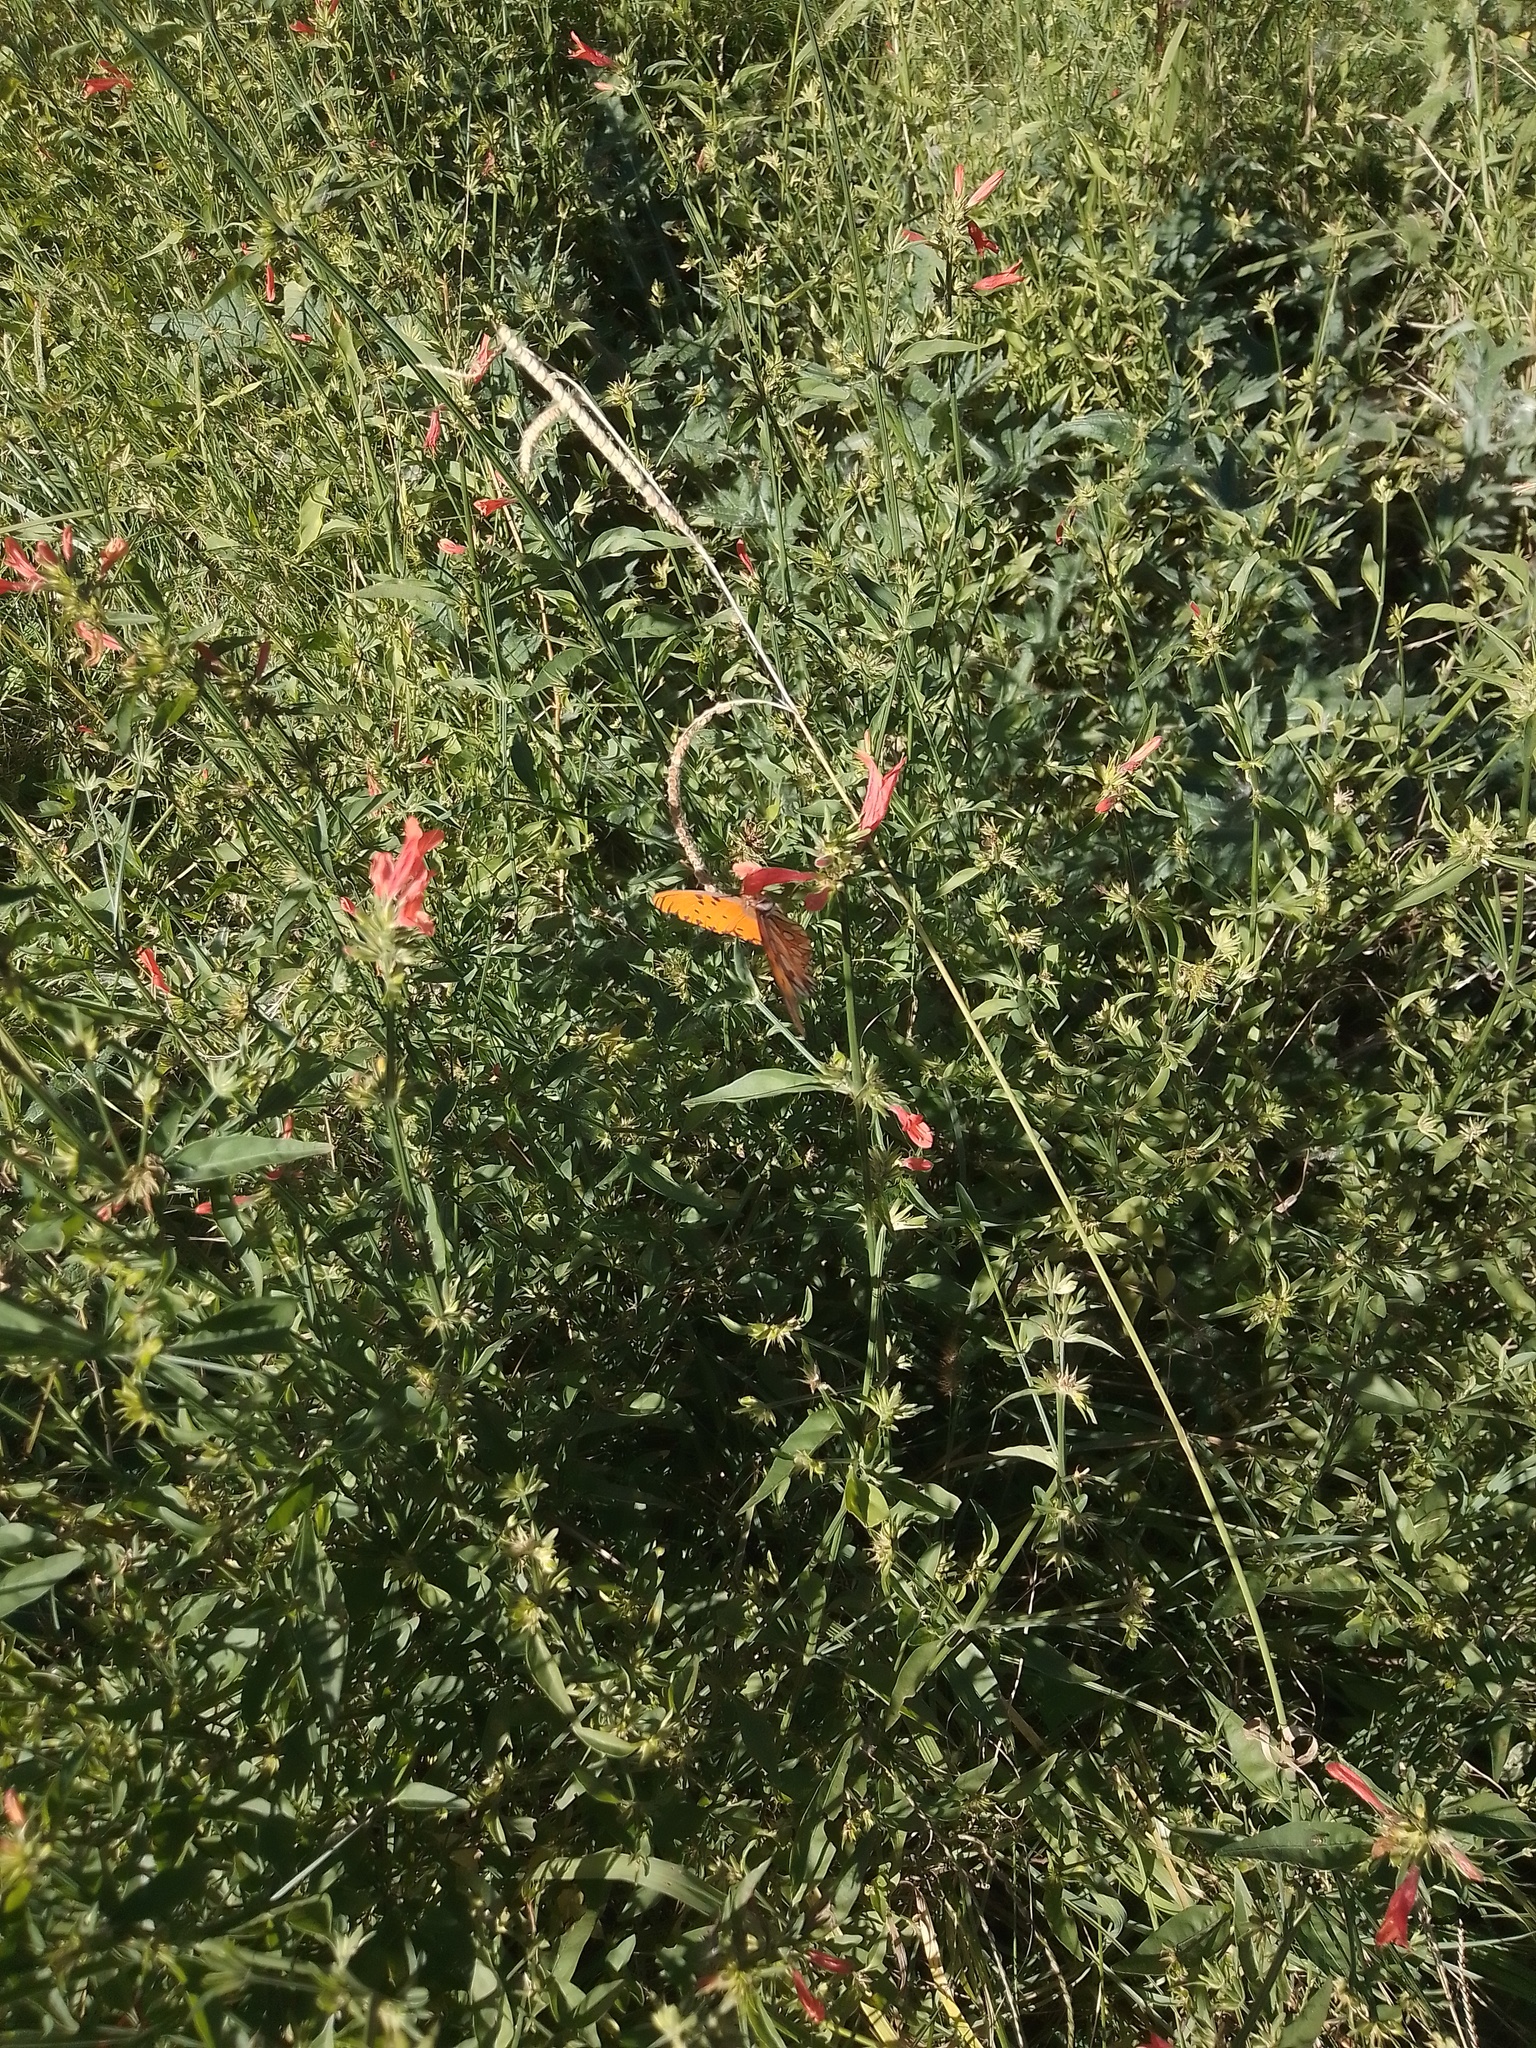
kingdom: Animalia
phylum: Arthropoda
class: Insecta
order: Lepidoptera
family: Nymphalidae
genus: Dione
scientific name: Dione vanillae
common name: Gulf fritillary
